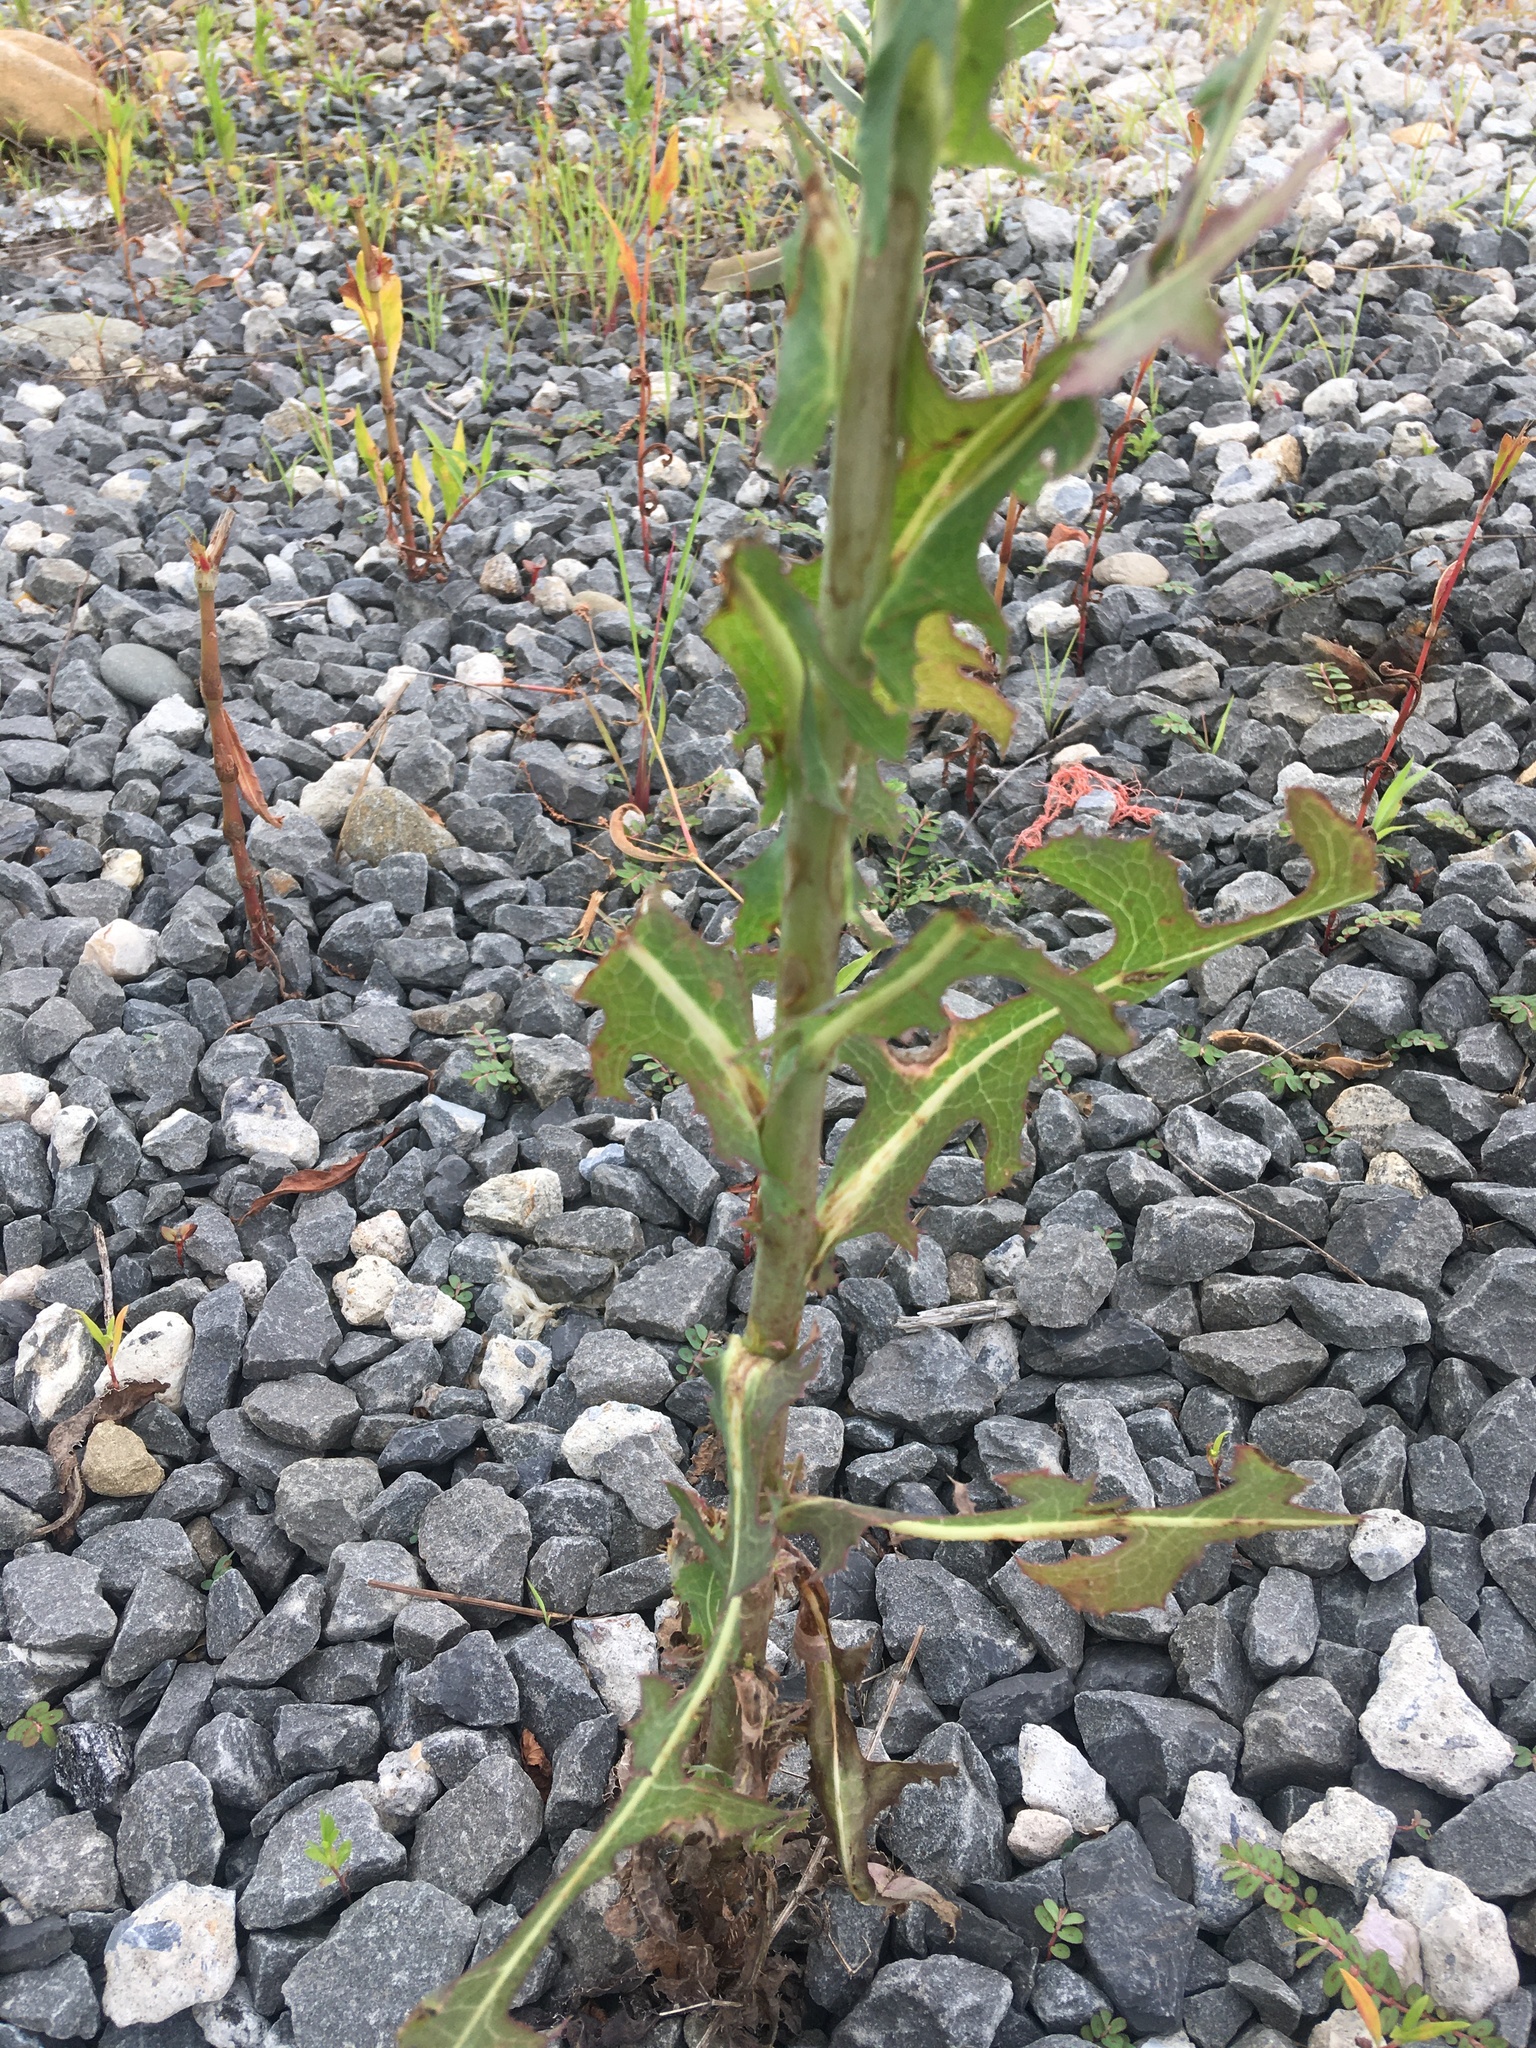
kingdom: Plantae
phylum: Tracheophyta
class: Magnoliopsida
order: Asterales
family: Asteraceae
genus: Lactuca
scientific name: Lactuca serriola
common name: Prickly lettuce
